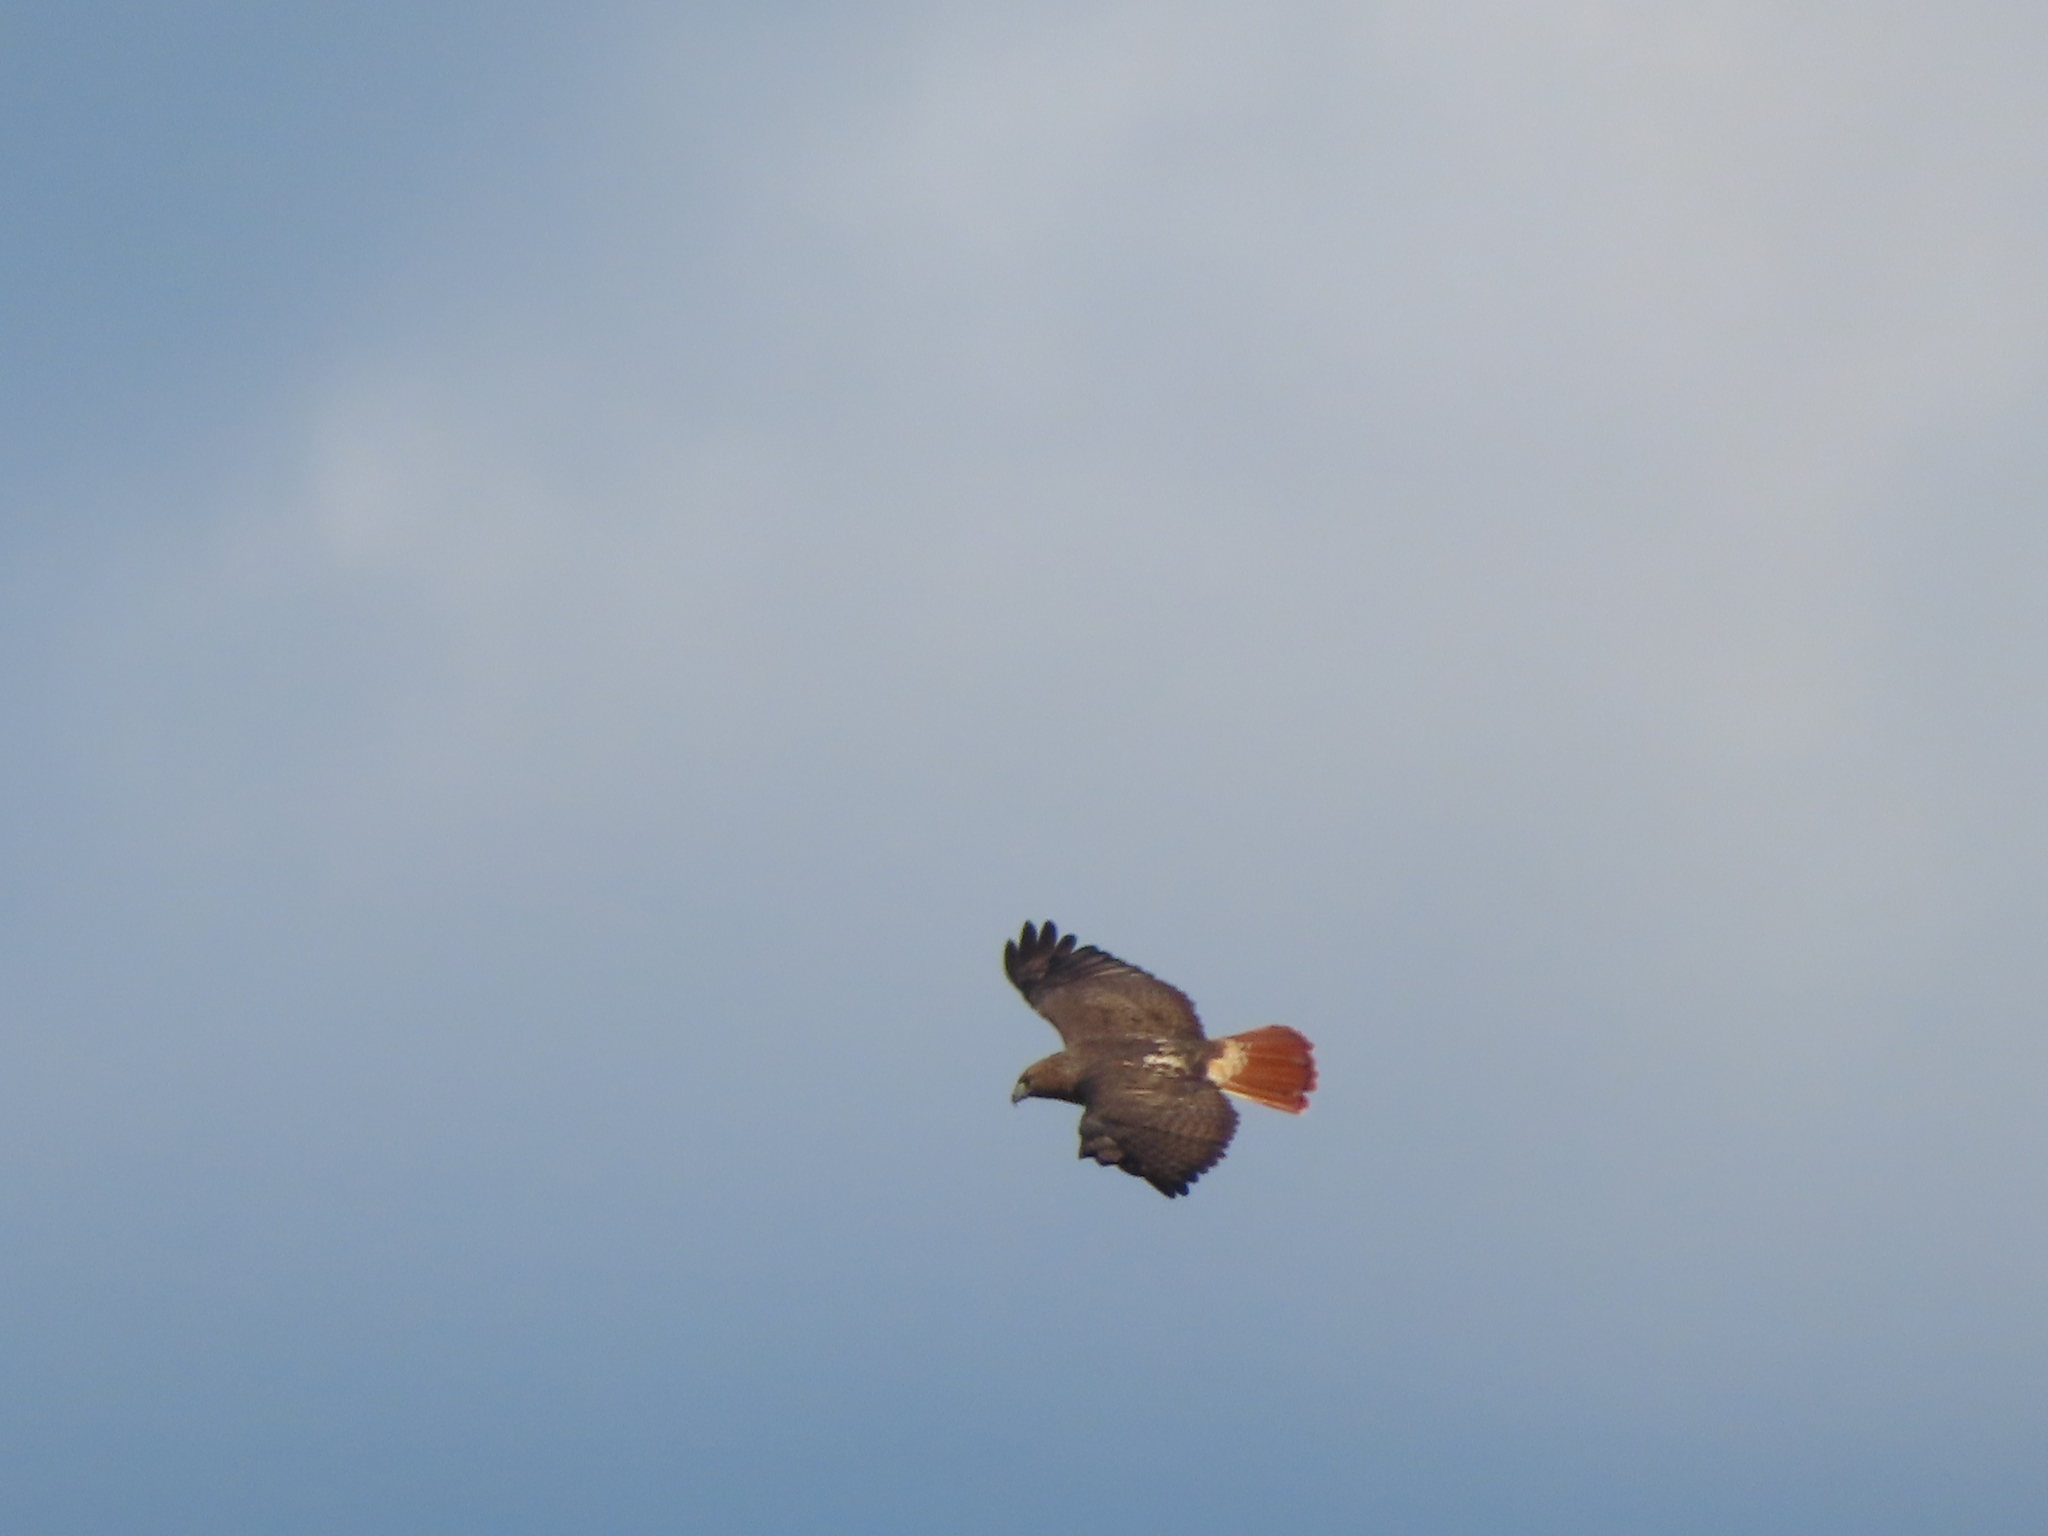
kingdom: Animalia
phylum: Chordata
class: Aves
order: Accipitriformes
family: Accipitridae
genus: Buteo
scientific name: Buteo jamaicensis
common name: Red-tailed hawk
